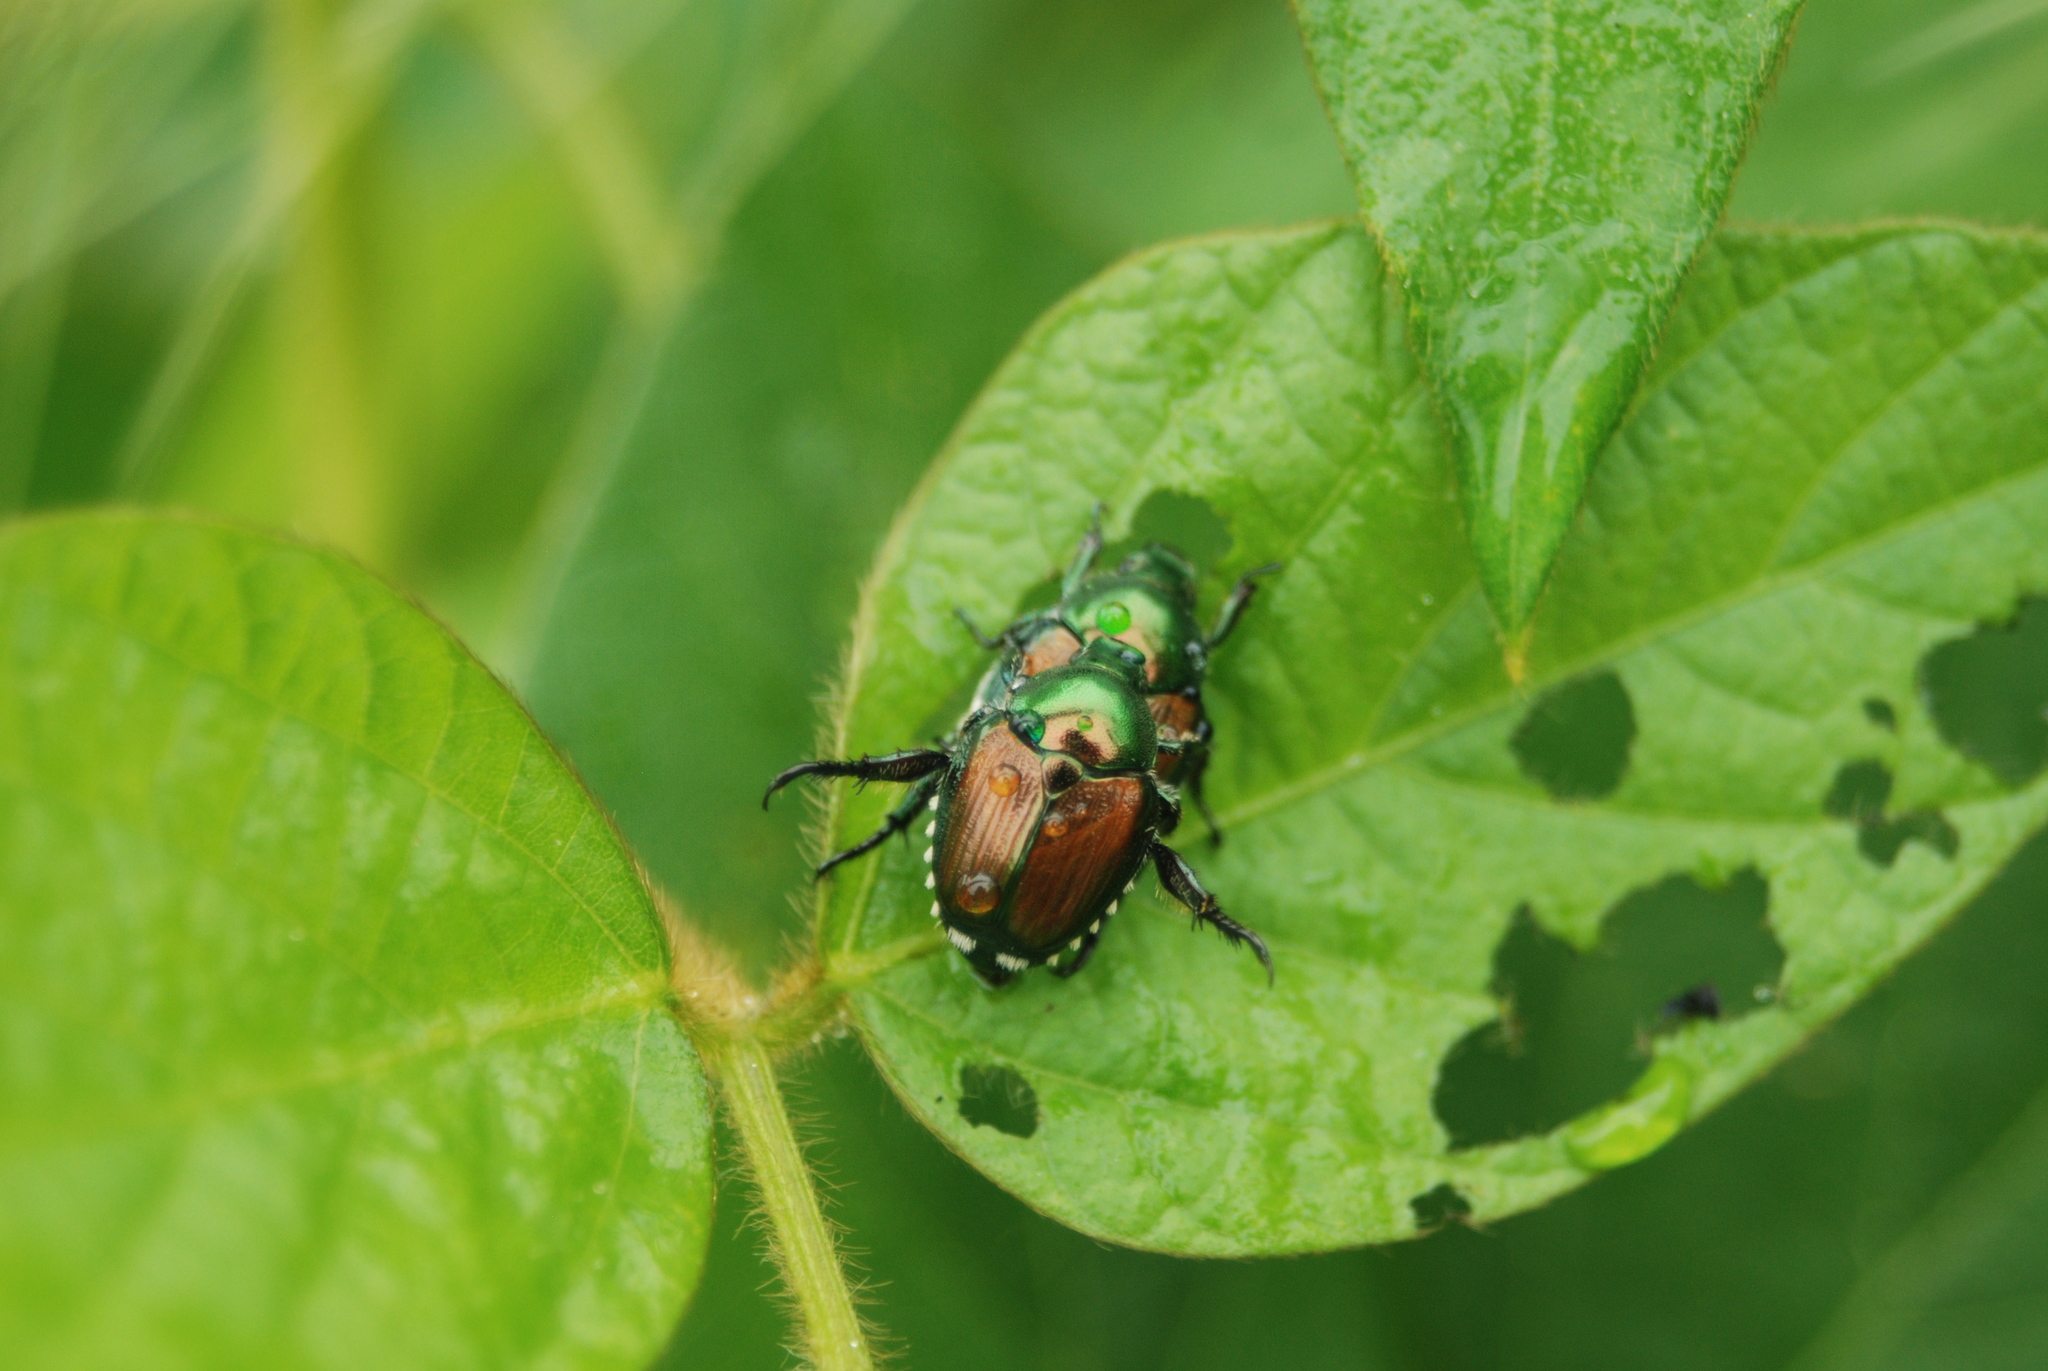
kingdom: Animalia
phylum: Arthropoda
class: Insecta
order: Coleoptera
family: Scarabaeidae
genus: Popillia
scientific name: Popillia japonica
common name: Japanese beetle
